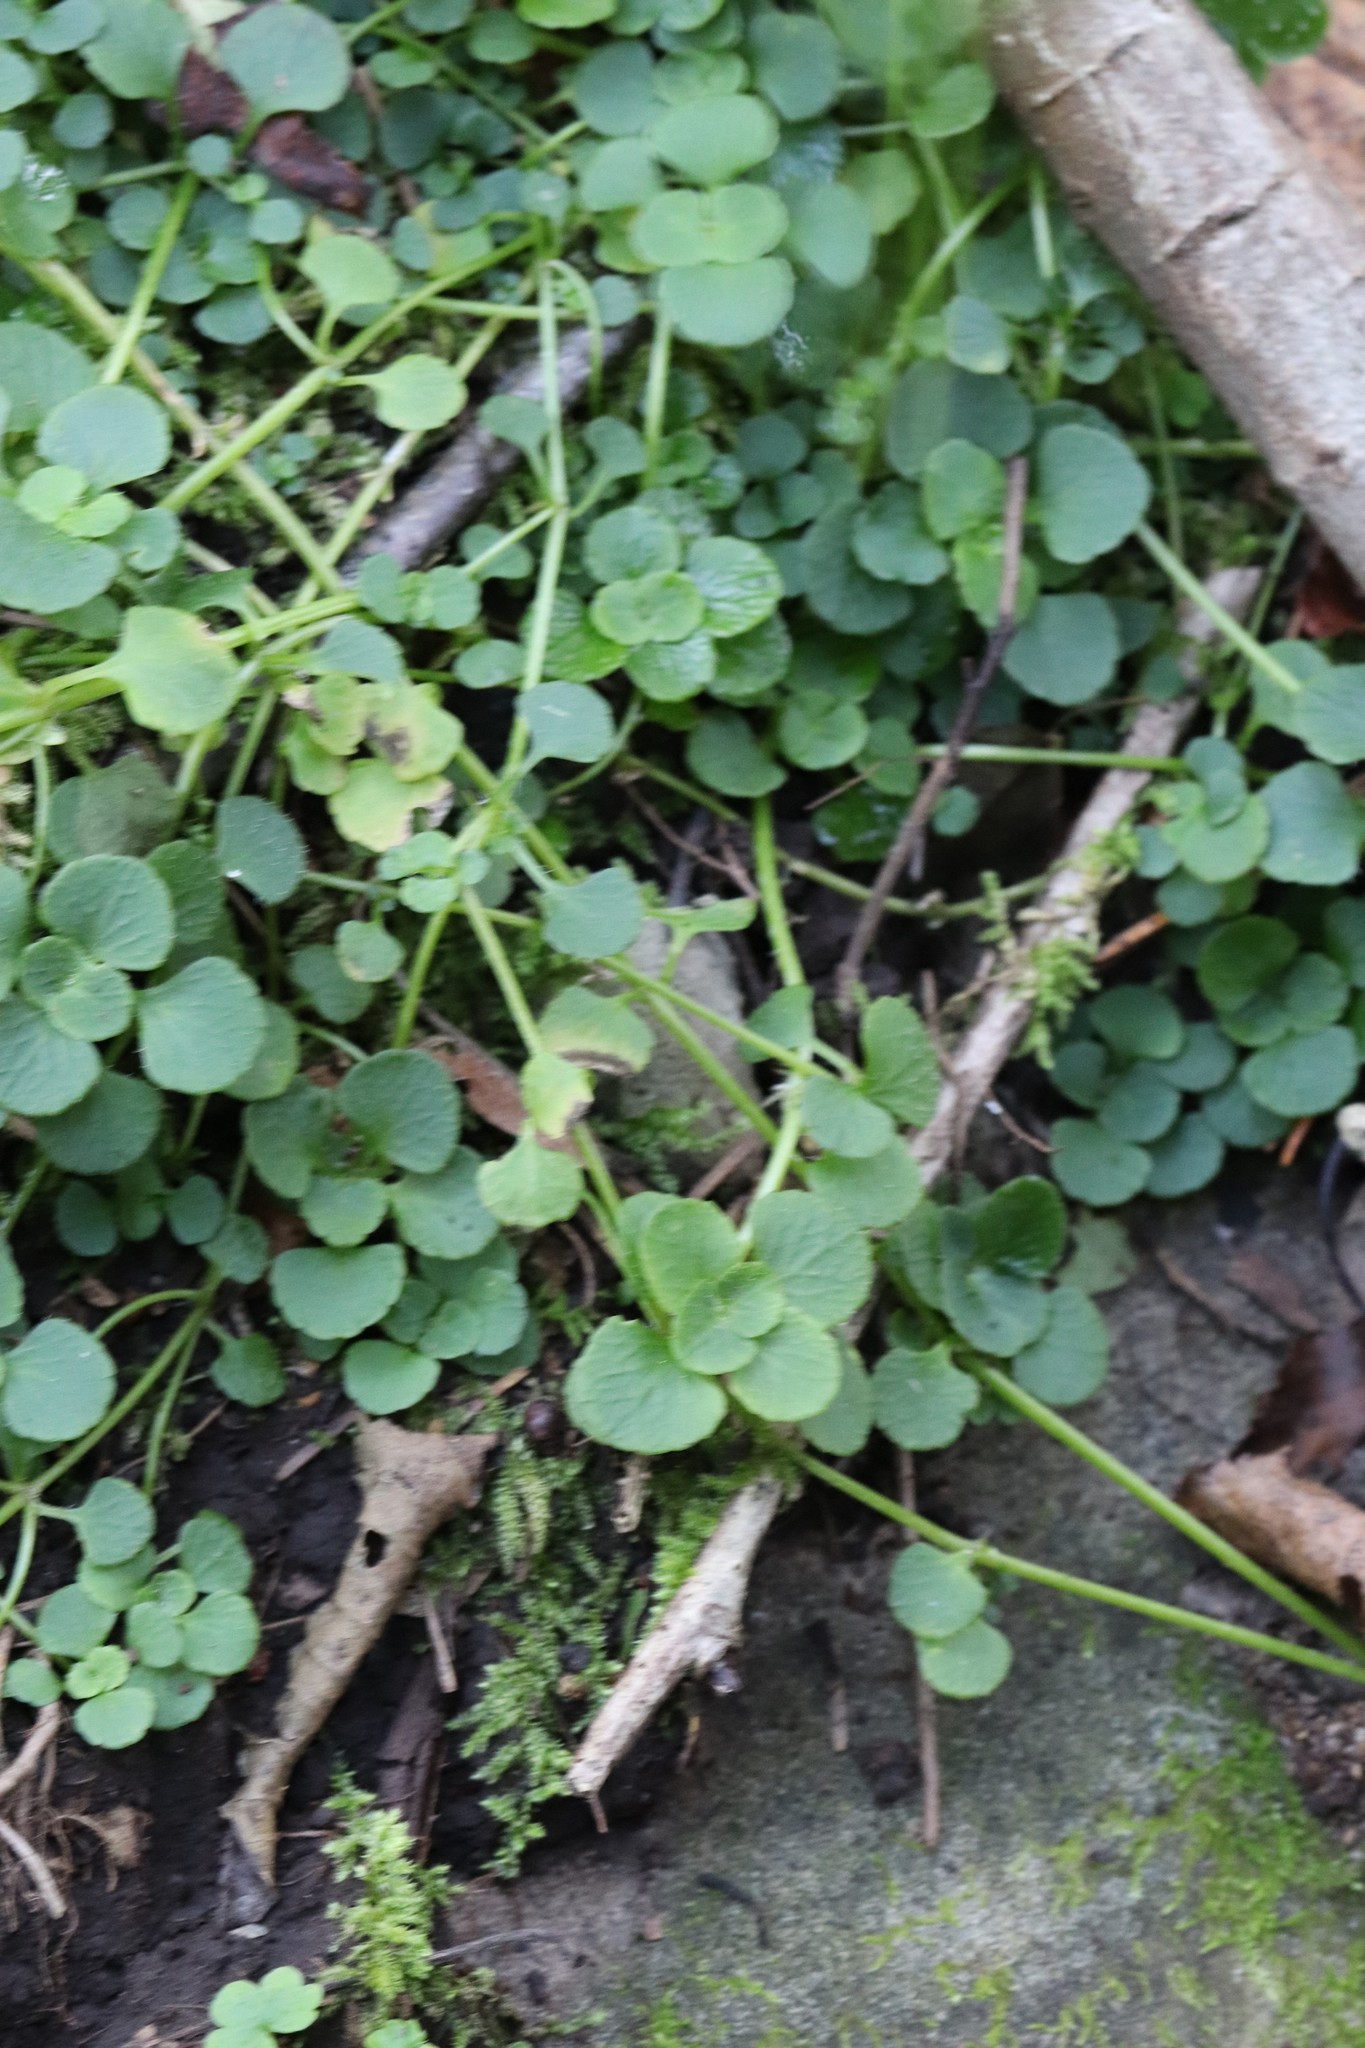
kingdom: Plantae
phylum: Tracheophyta
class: Magnoliopsida
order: Saxifragales
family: Saxifragaceae
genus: Chrysosplenium
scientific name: Chrysosplenium ramosum
